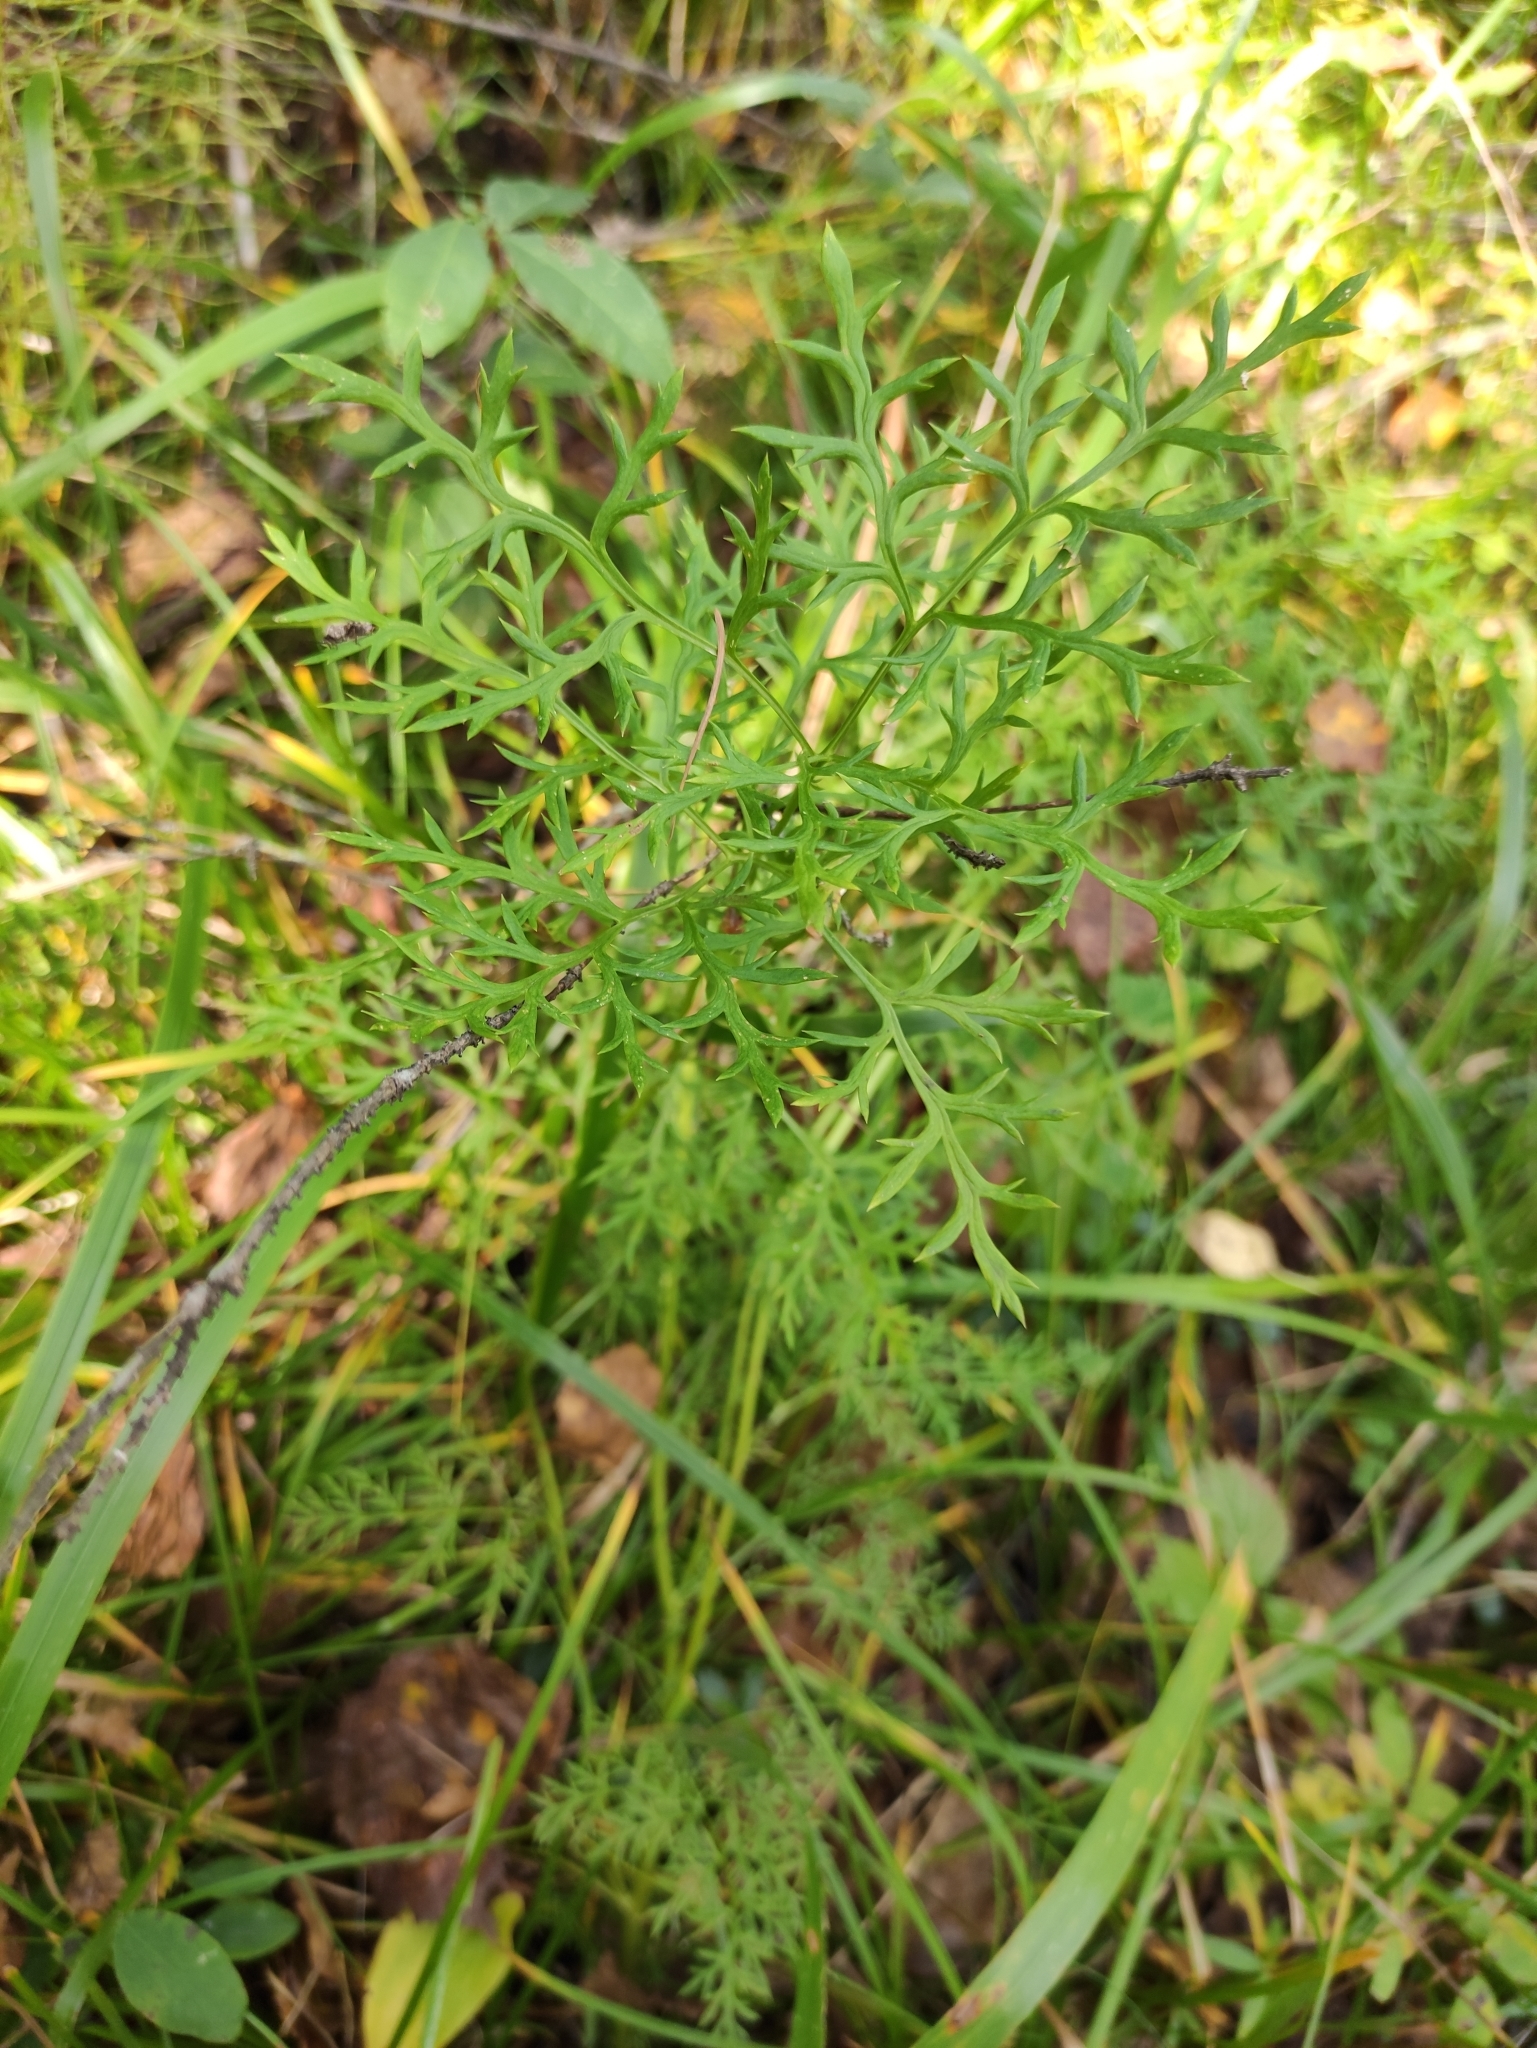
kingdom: Plantae
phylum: Tracheophyta
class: Magnoliopsida
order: Ranunculales
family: Ranunculaceae
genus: Adonis
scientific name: Adonis
